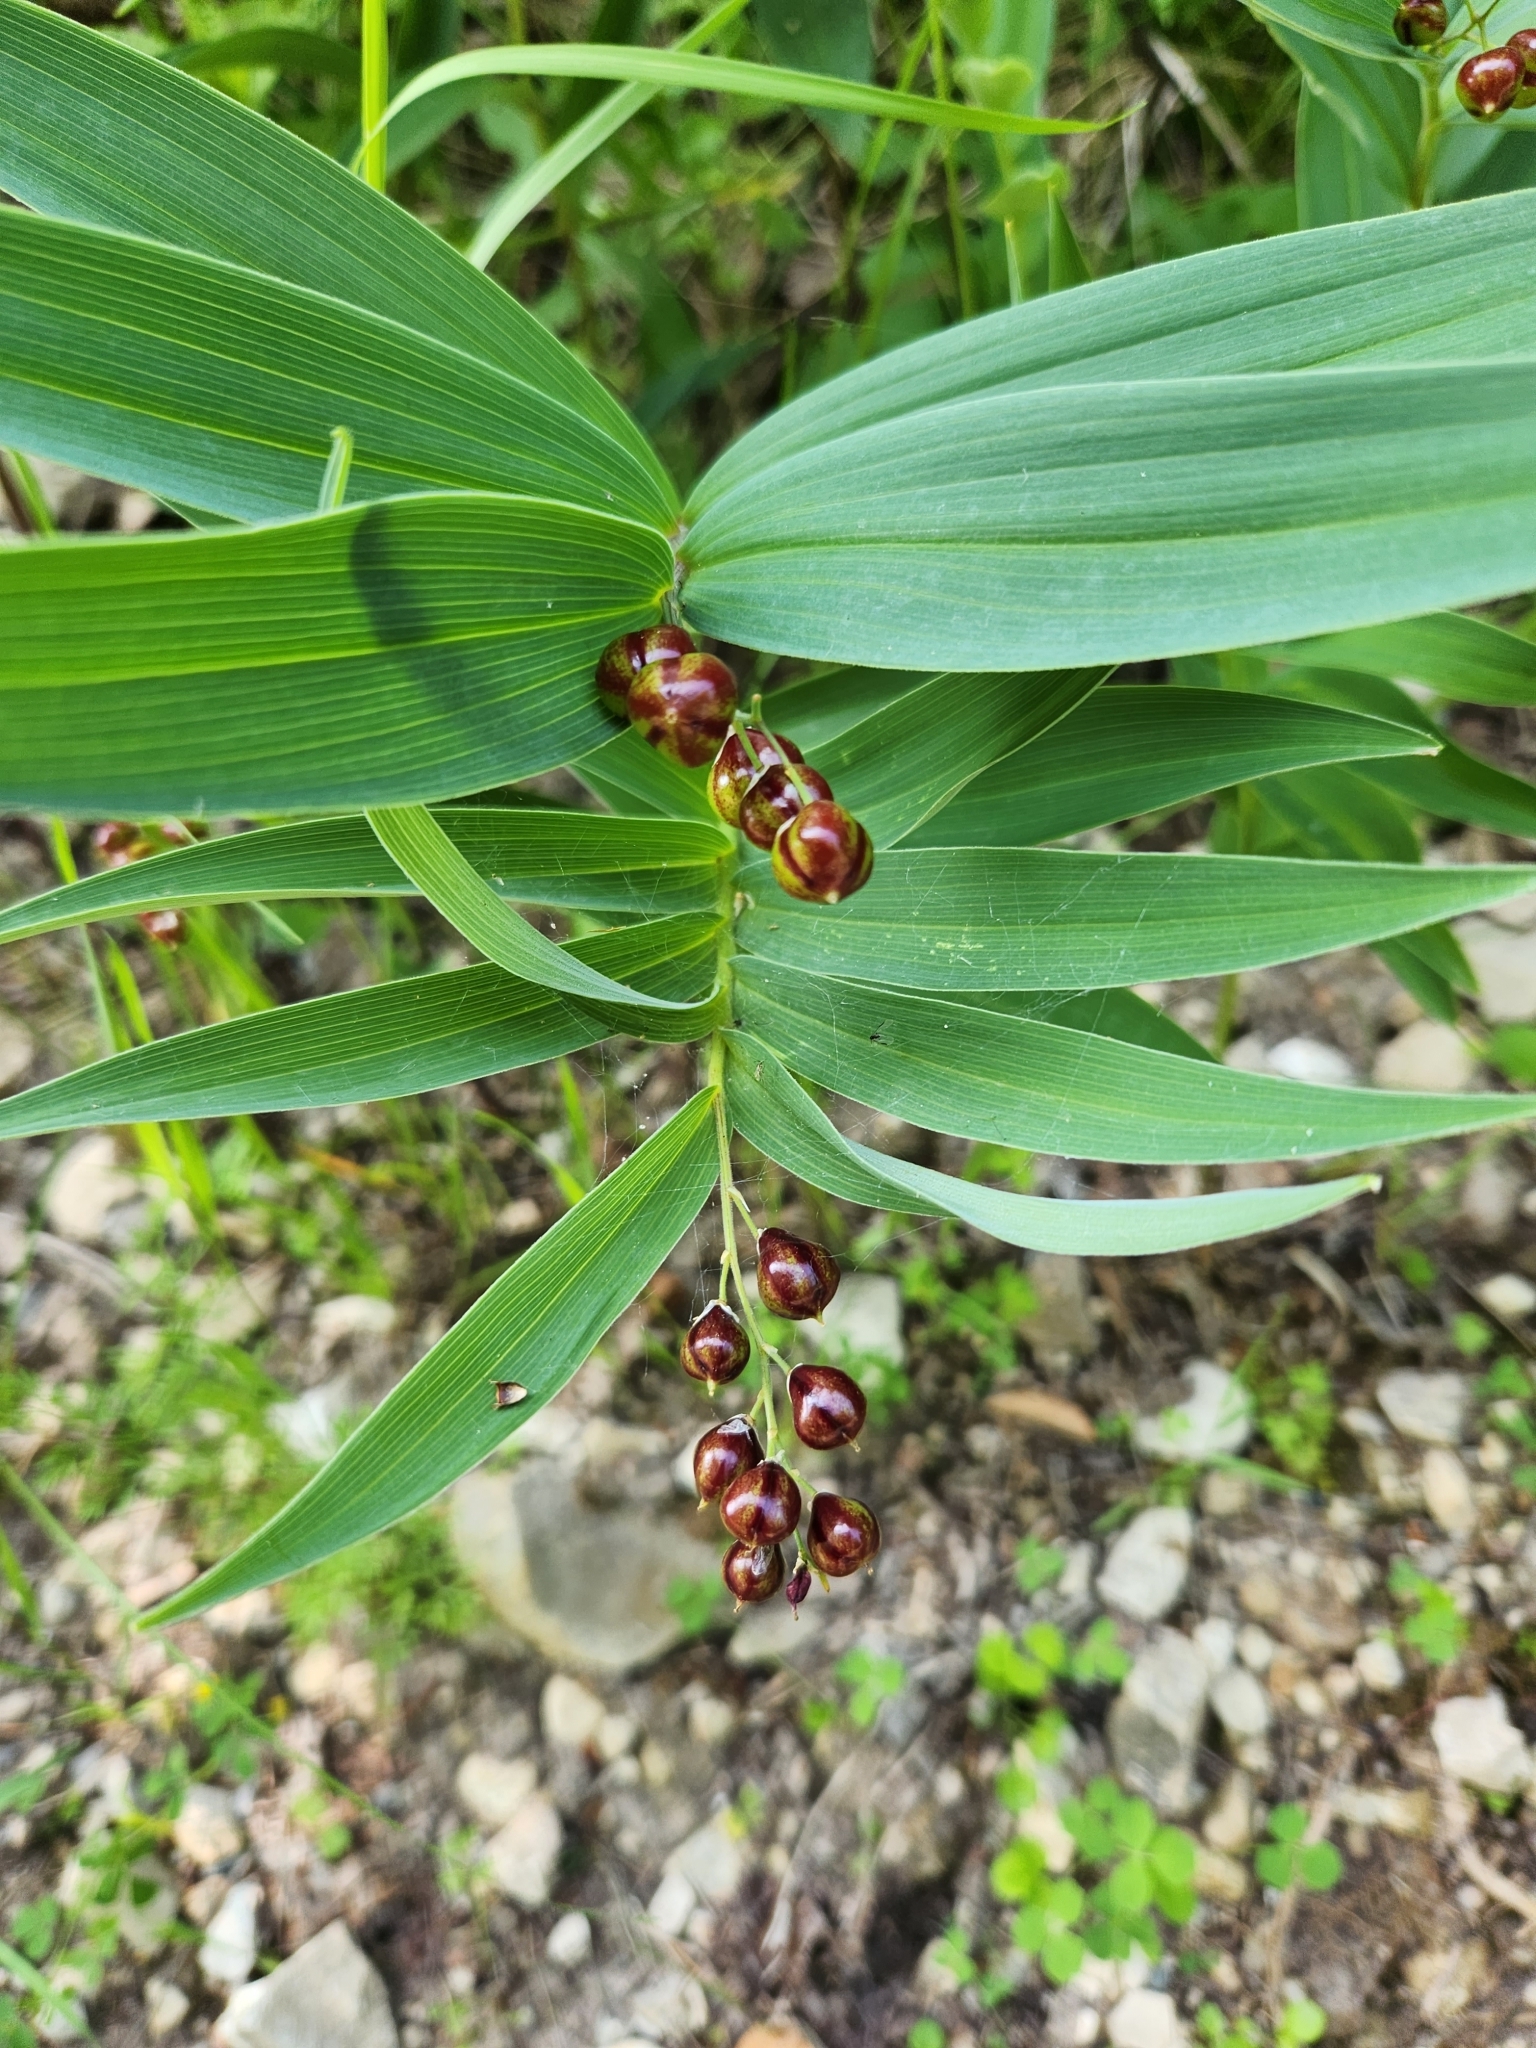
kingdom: Plantae
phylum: Tracheophyta
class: Liliopsida
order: Asparagales
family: Asparagaceae
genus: Maianthemum
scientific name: Maianthemum stellatum
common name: Little false solomon's seal
